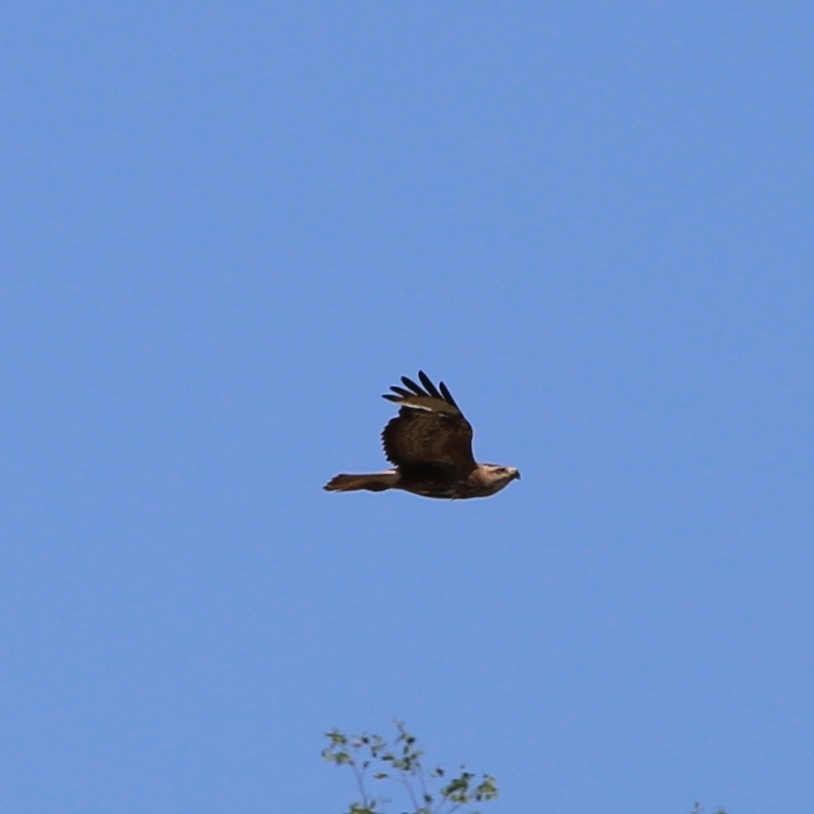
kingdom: Animalia
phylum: Chordata
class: Aves
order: Accipitriformes
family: Accipitridae
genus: Buteo
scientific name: Buteo buteo
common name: Common buzzard
